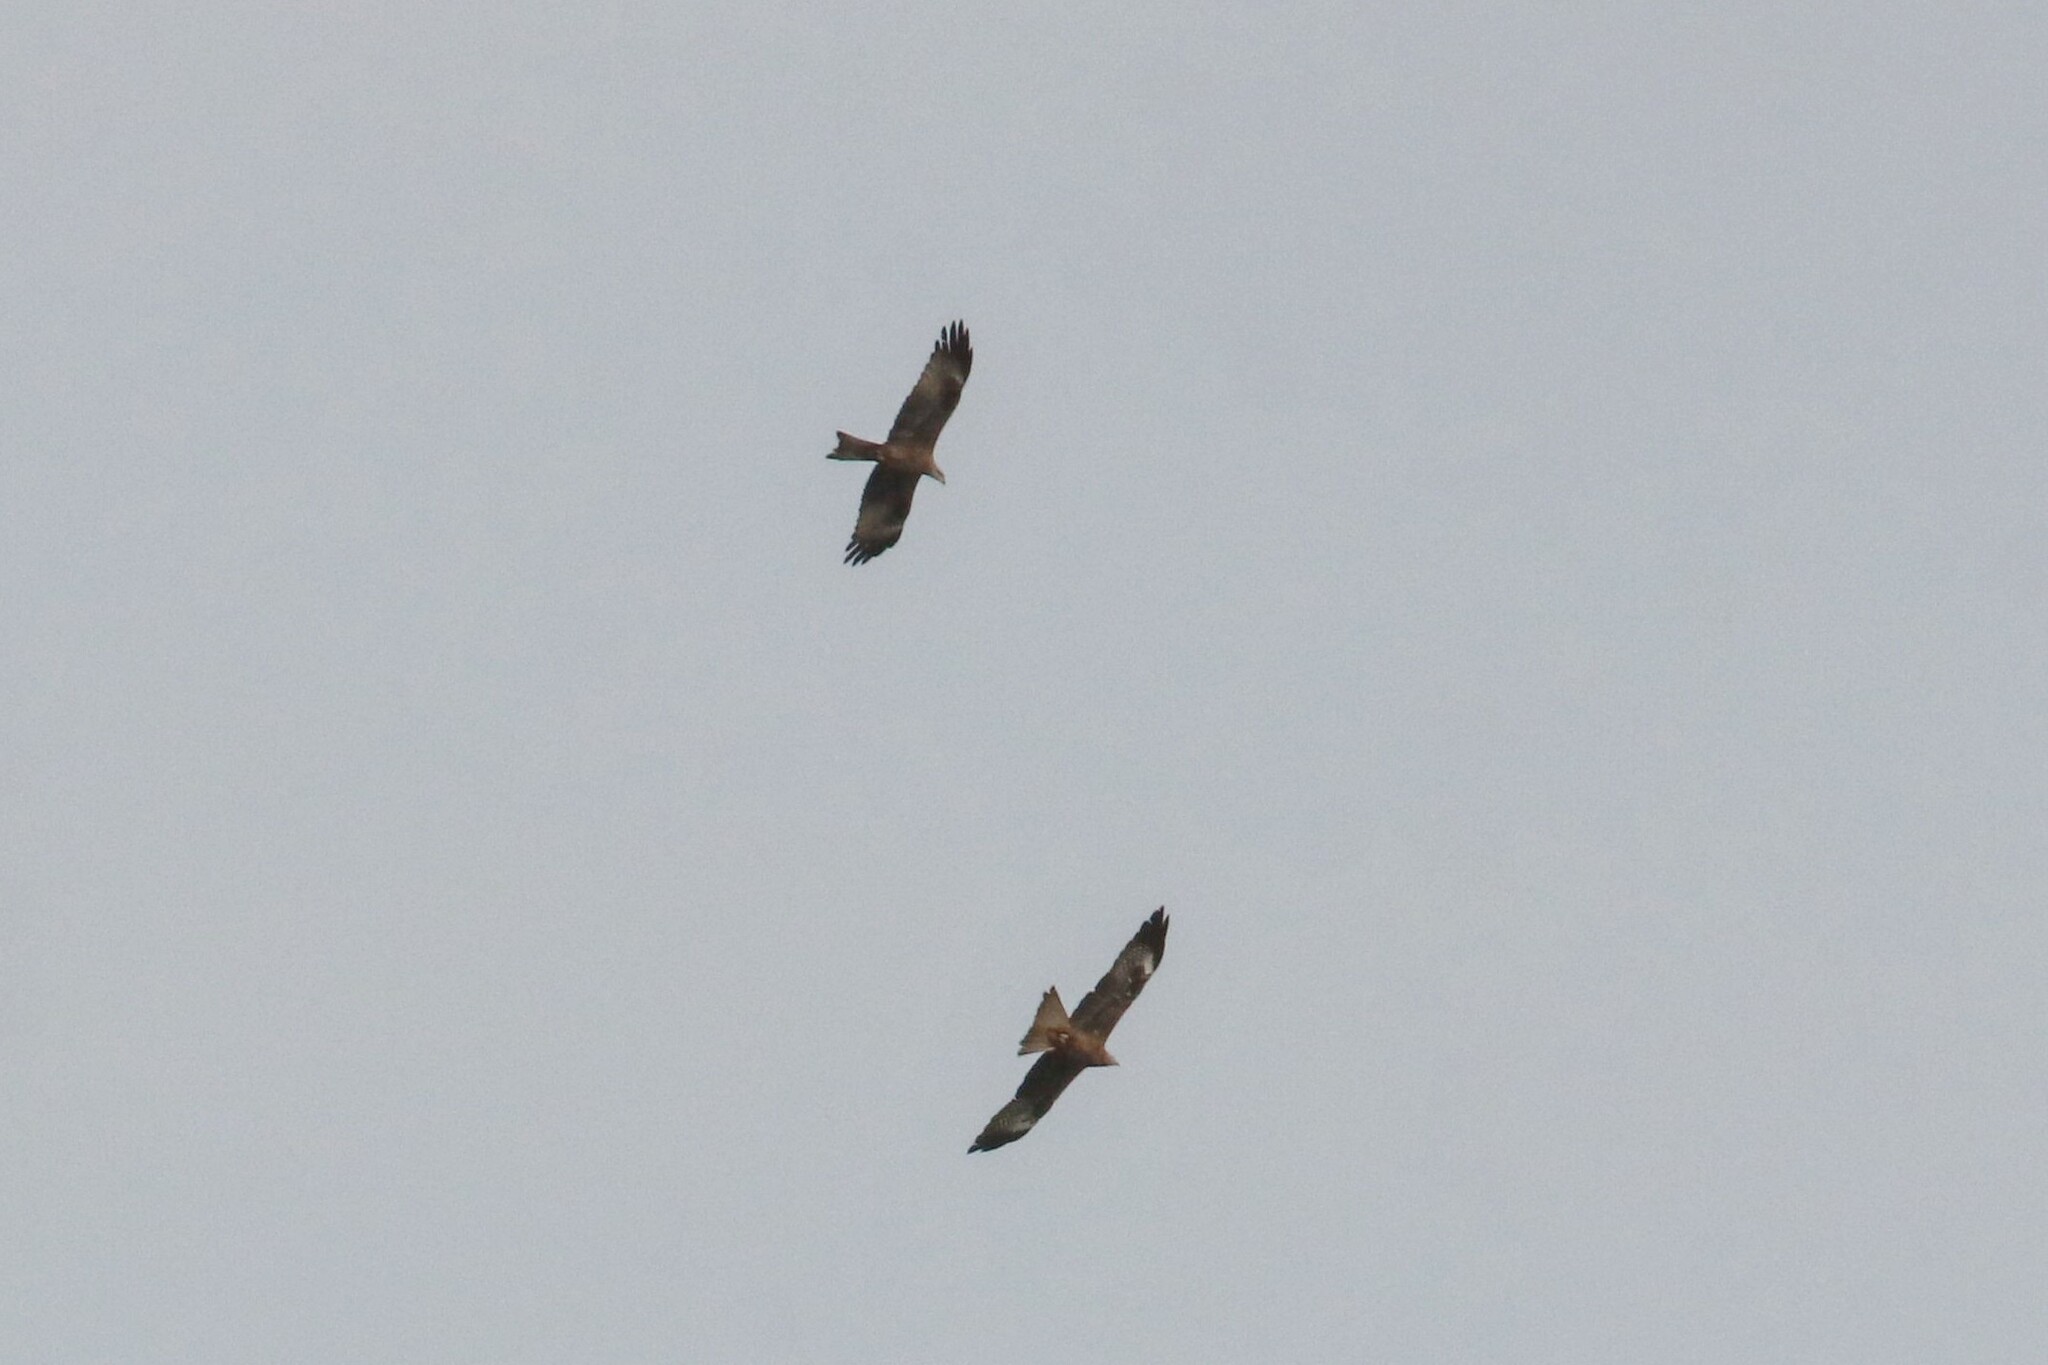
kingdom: Animalia
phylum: Chordata
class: Aves
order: Accipitriformes
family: Accipitridae
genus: Milvus
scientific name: Milvus migrans
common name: Black kite
